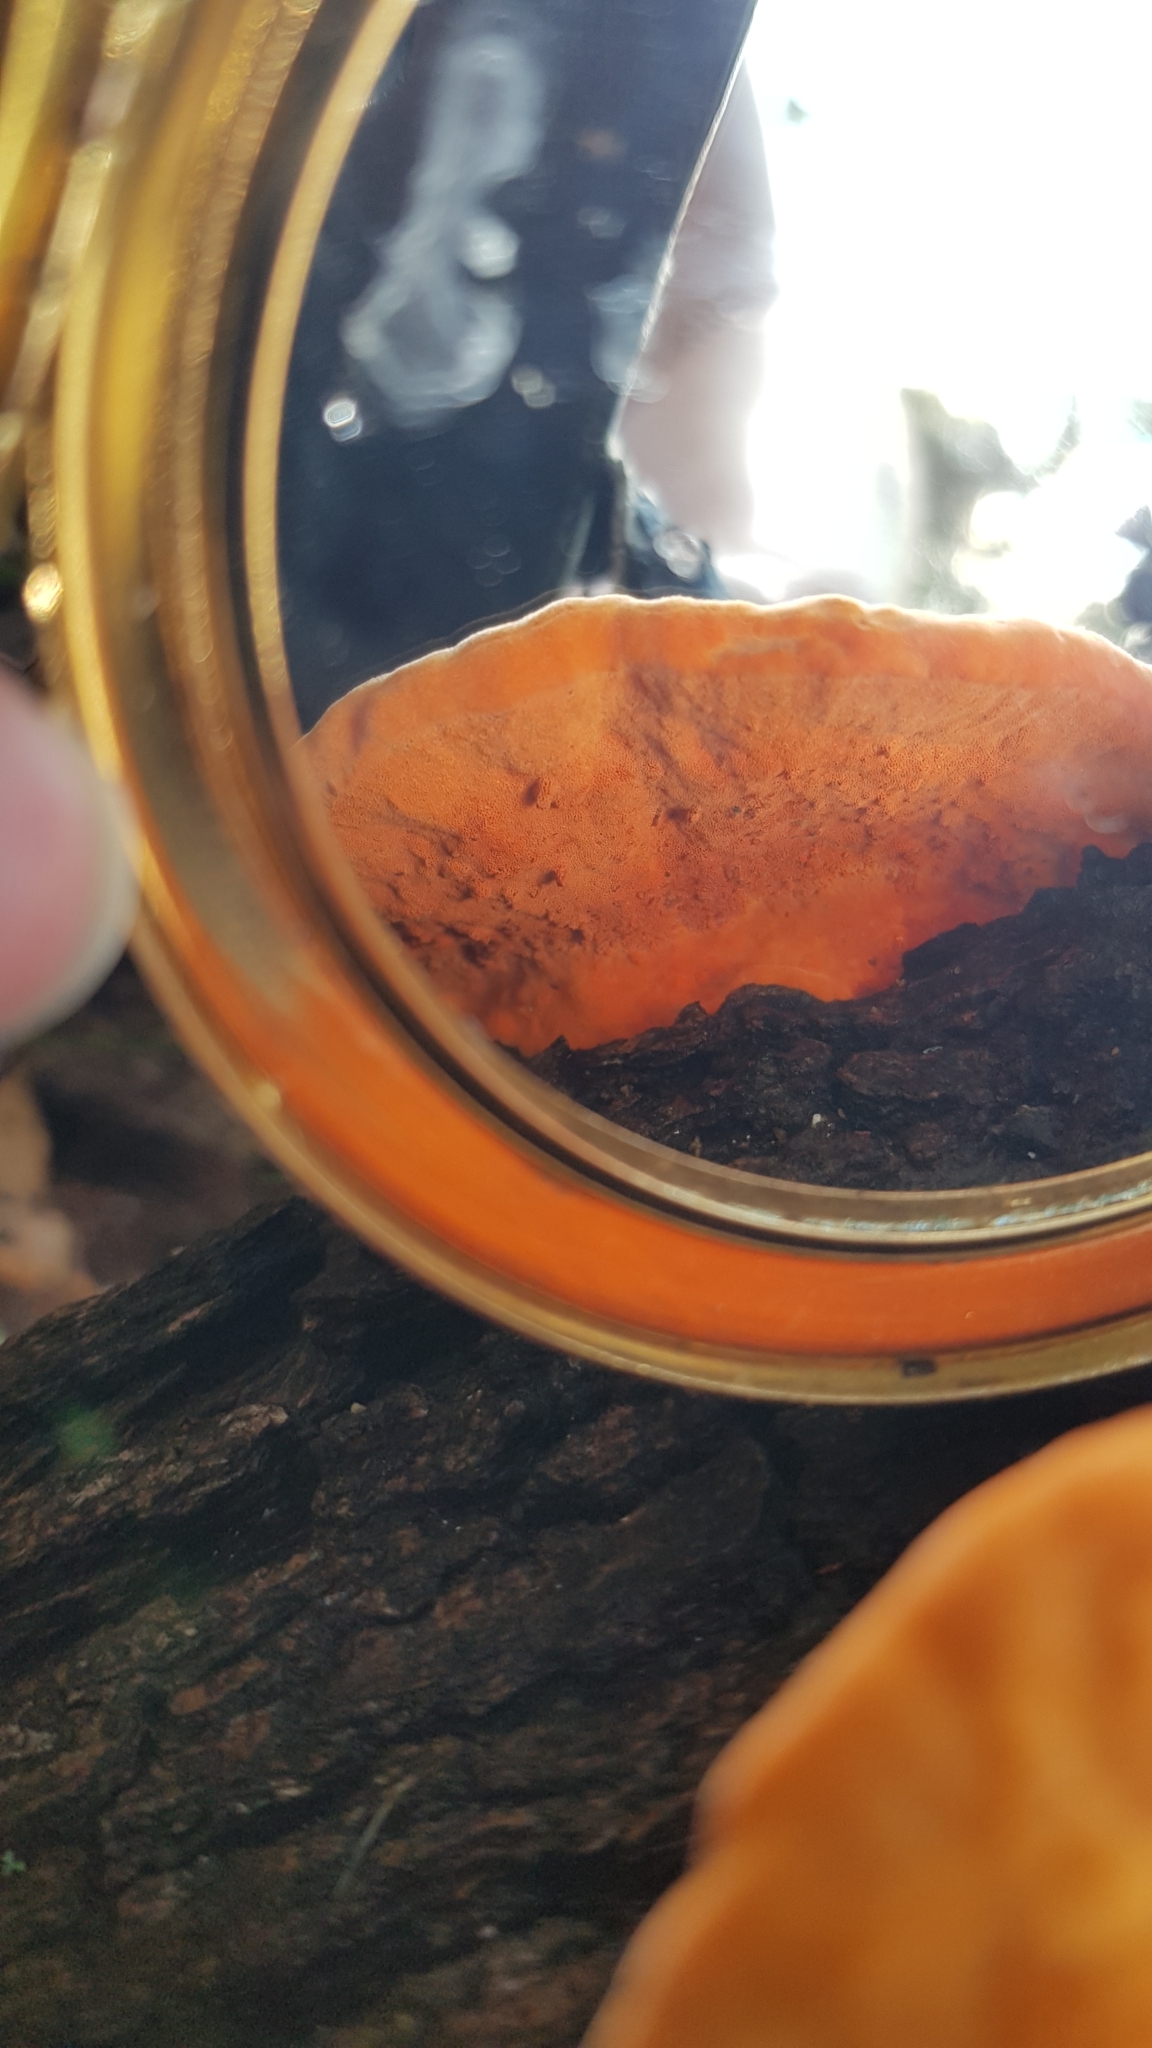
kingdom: Fungi
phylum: Basidiomycota
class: Agaricomycetes
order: Polyporales
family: Polyporaceae
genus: Trametes
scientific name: Trametes coccinea
